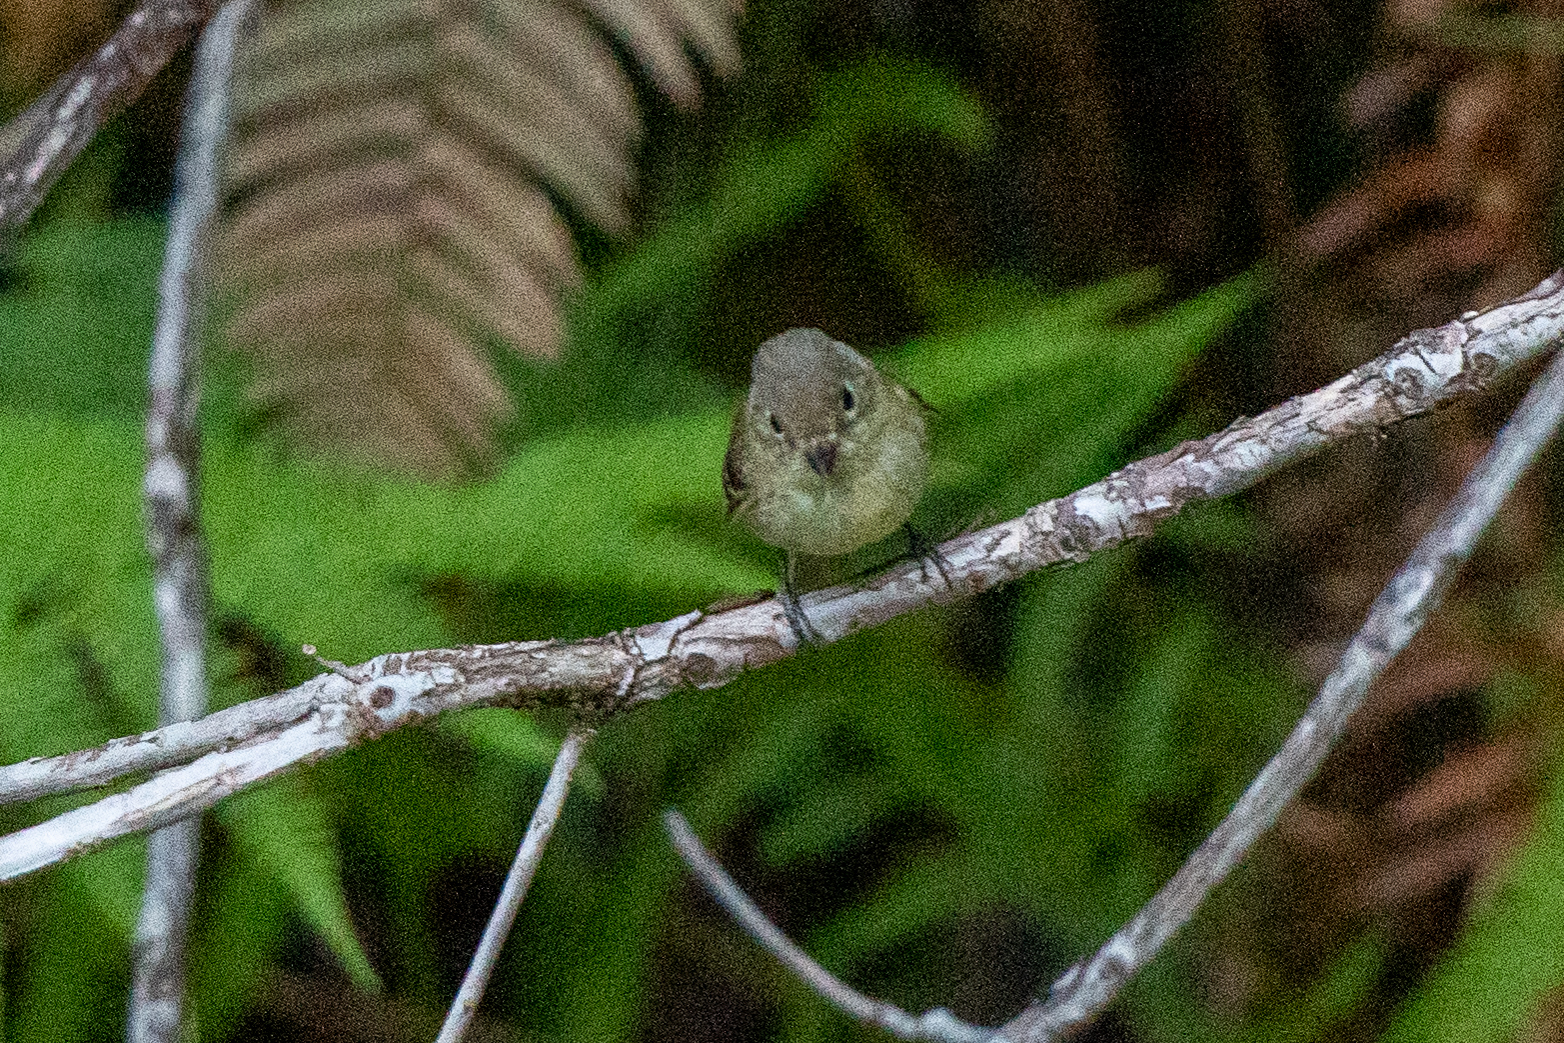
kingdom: Animalia
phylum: Chordata
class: Aves
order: Passeriformes
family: Tyrannidae
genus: Empidonax
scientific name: Empidonax difficilis
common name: Pacific-slope flycatcher
